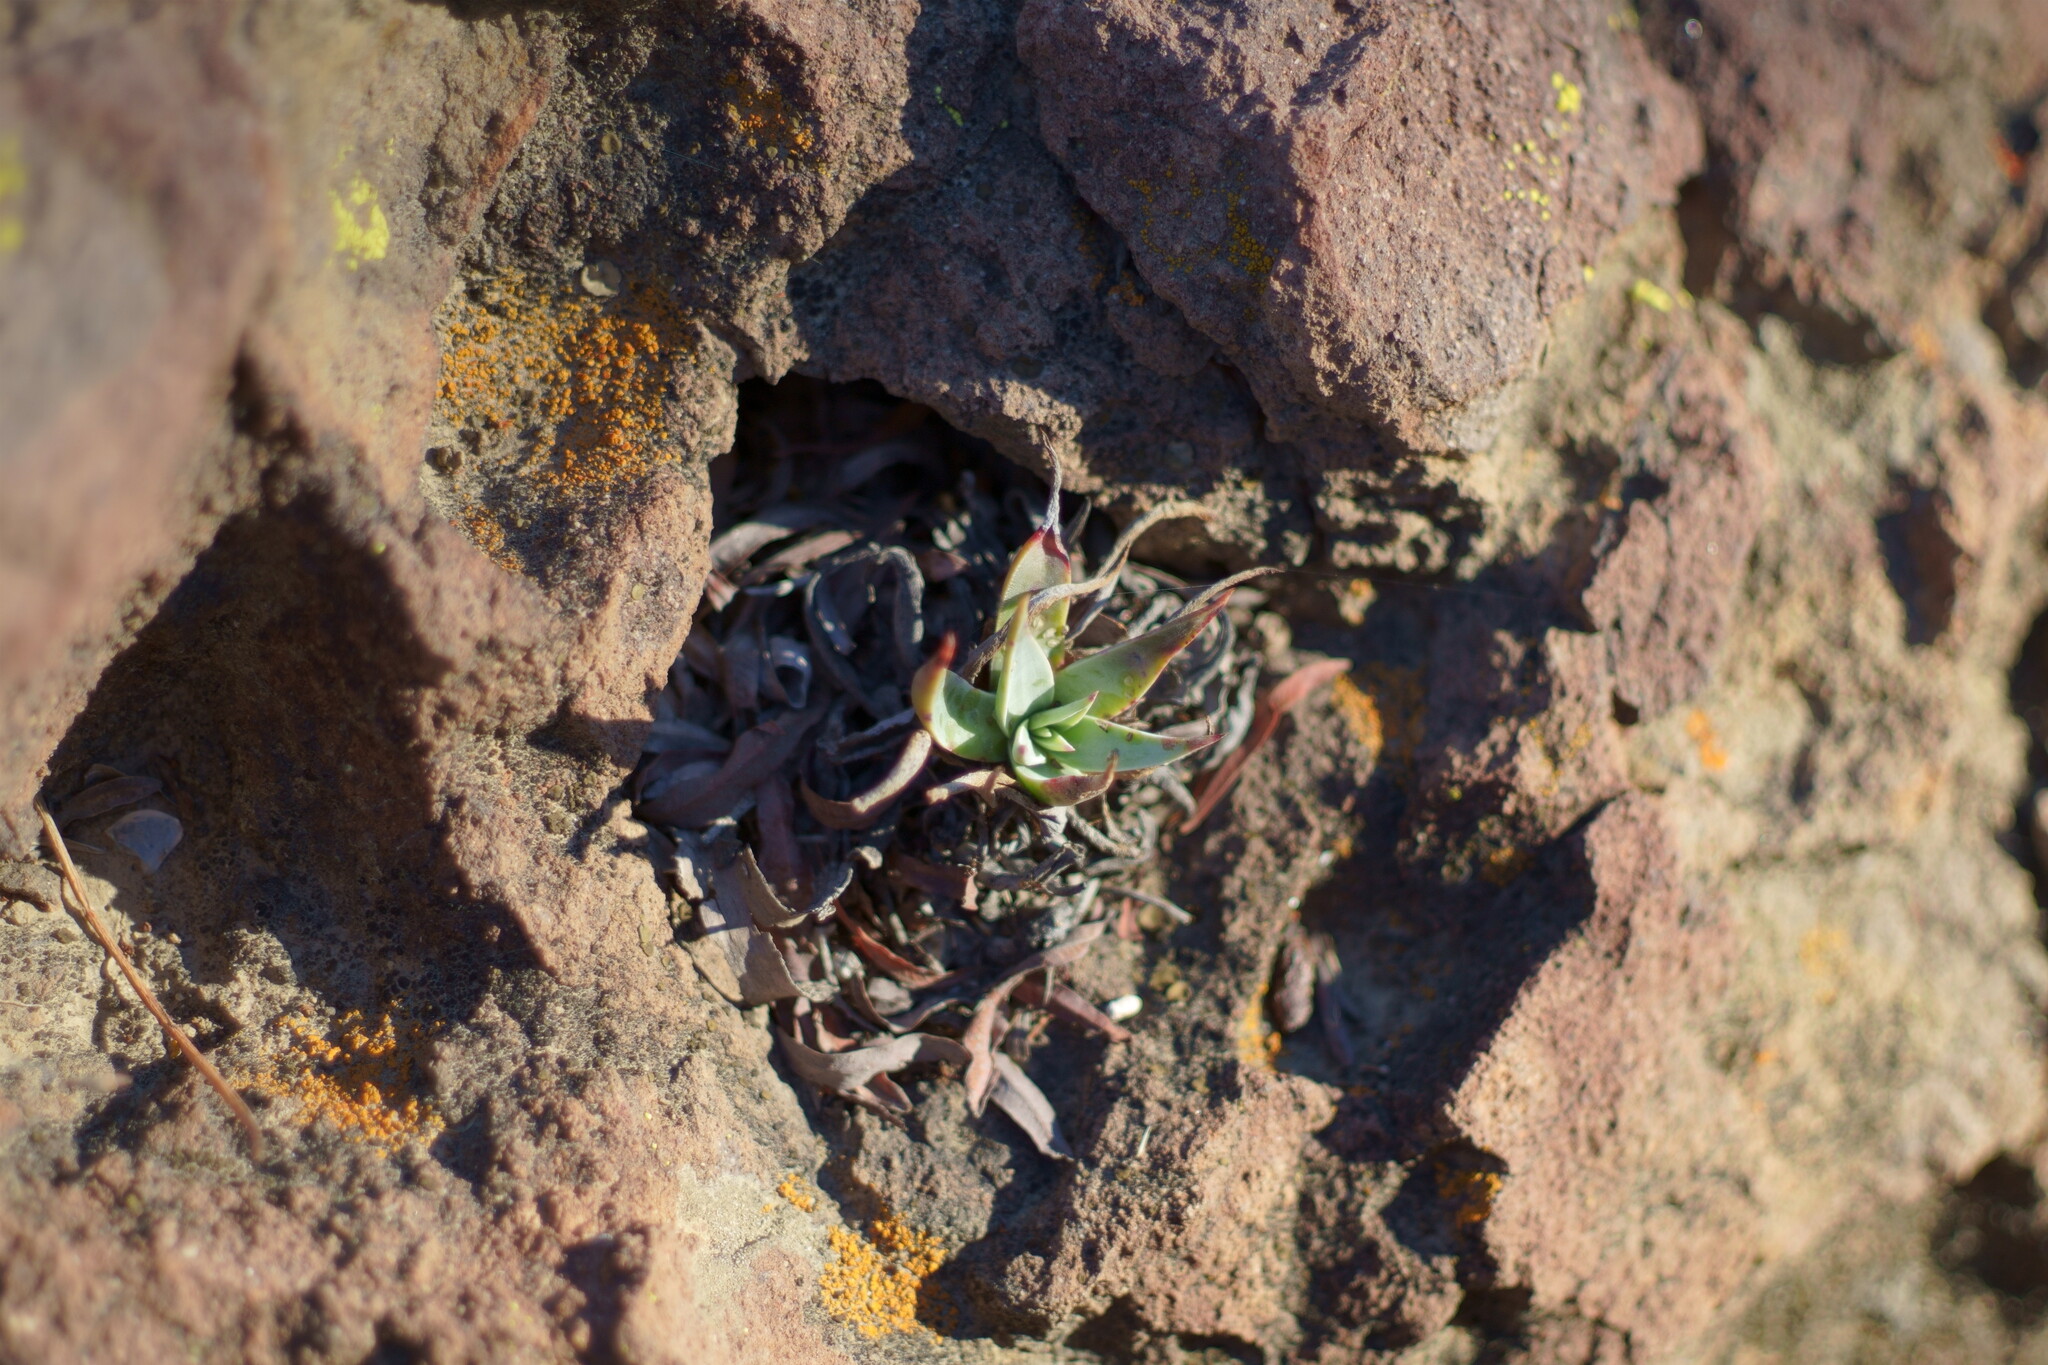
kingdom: Plantae
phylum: Tracheophyta
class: Magnoliopsida
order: Saxifragales
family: Crassulaceae
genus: Dudleya
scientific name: Dudleya verityi
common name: Verity dudleya
